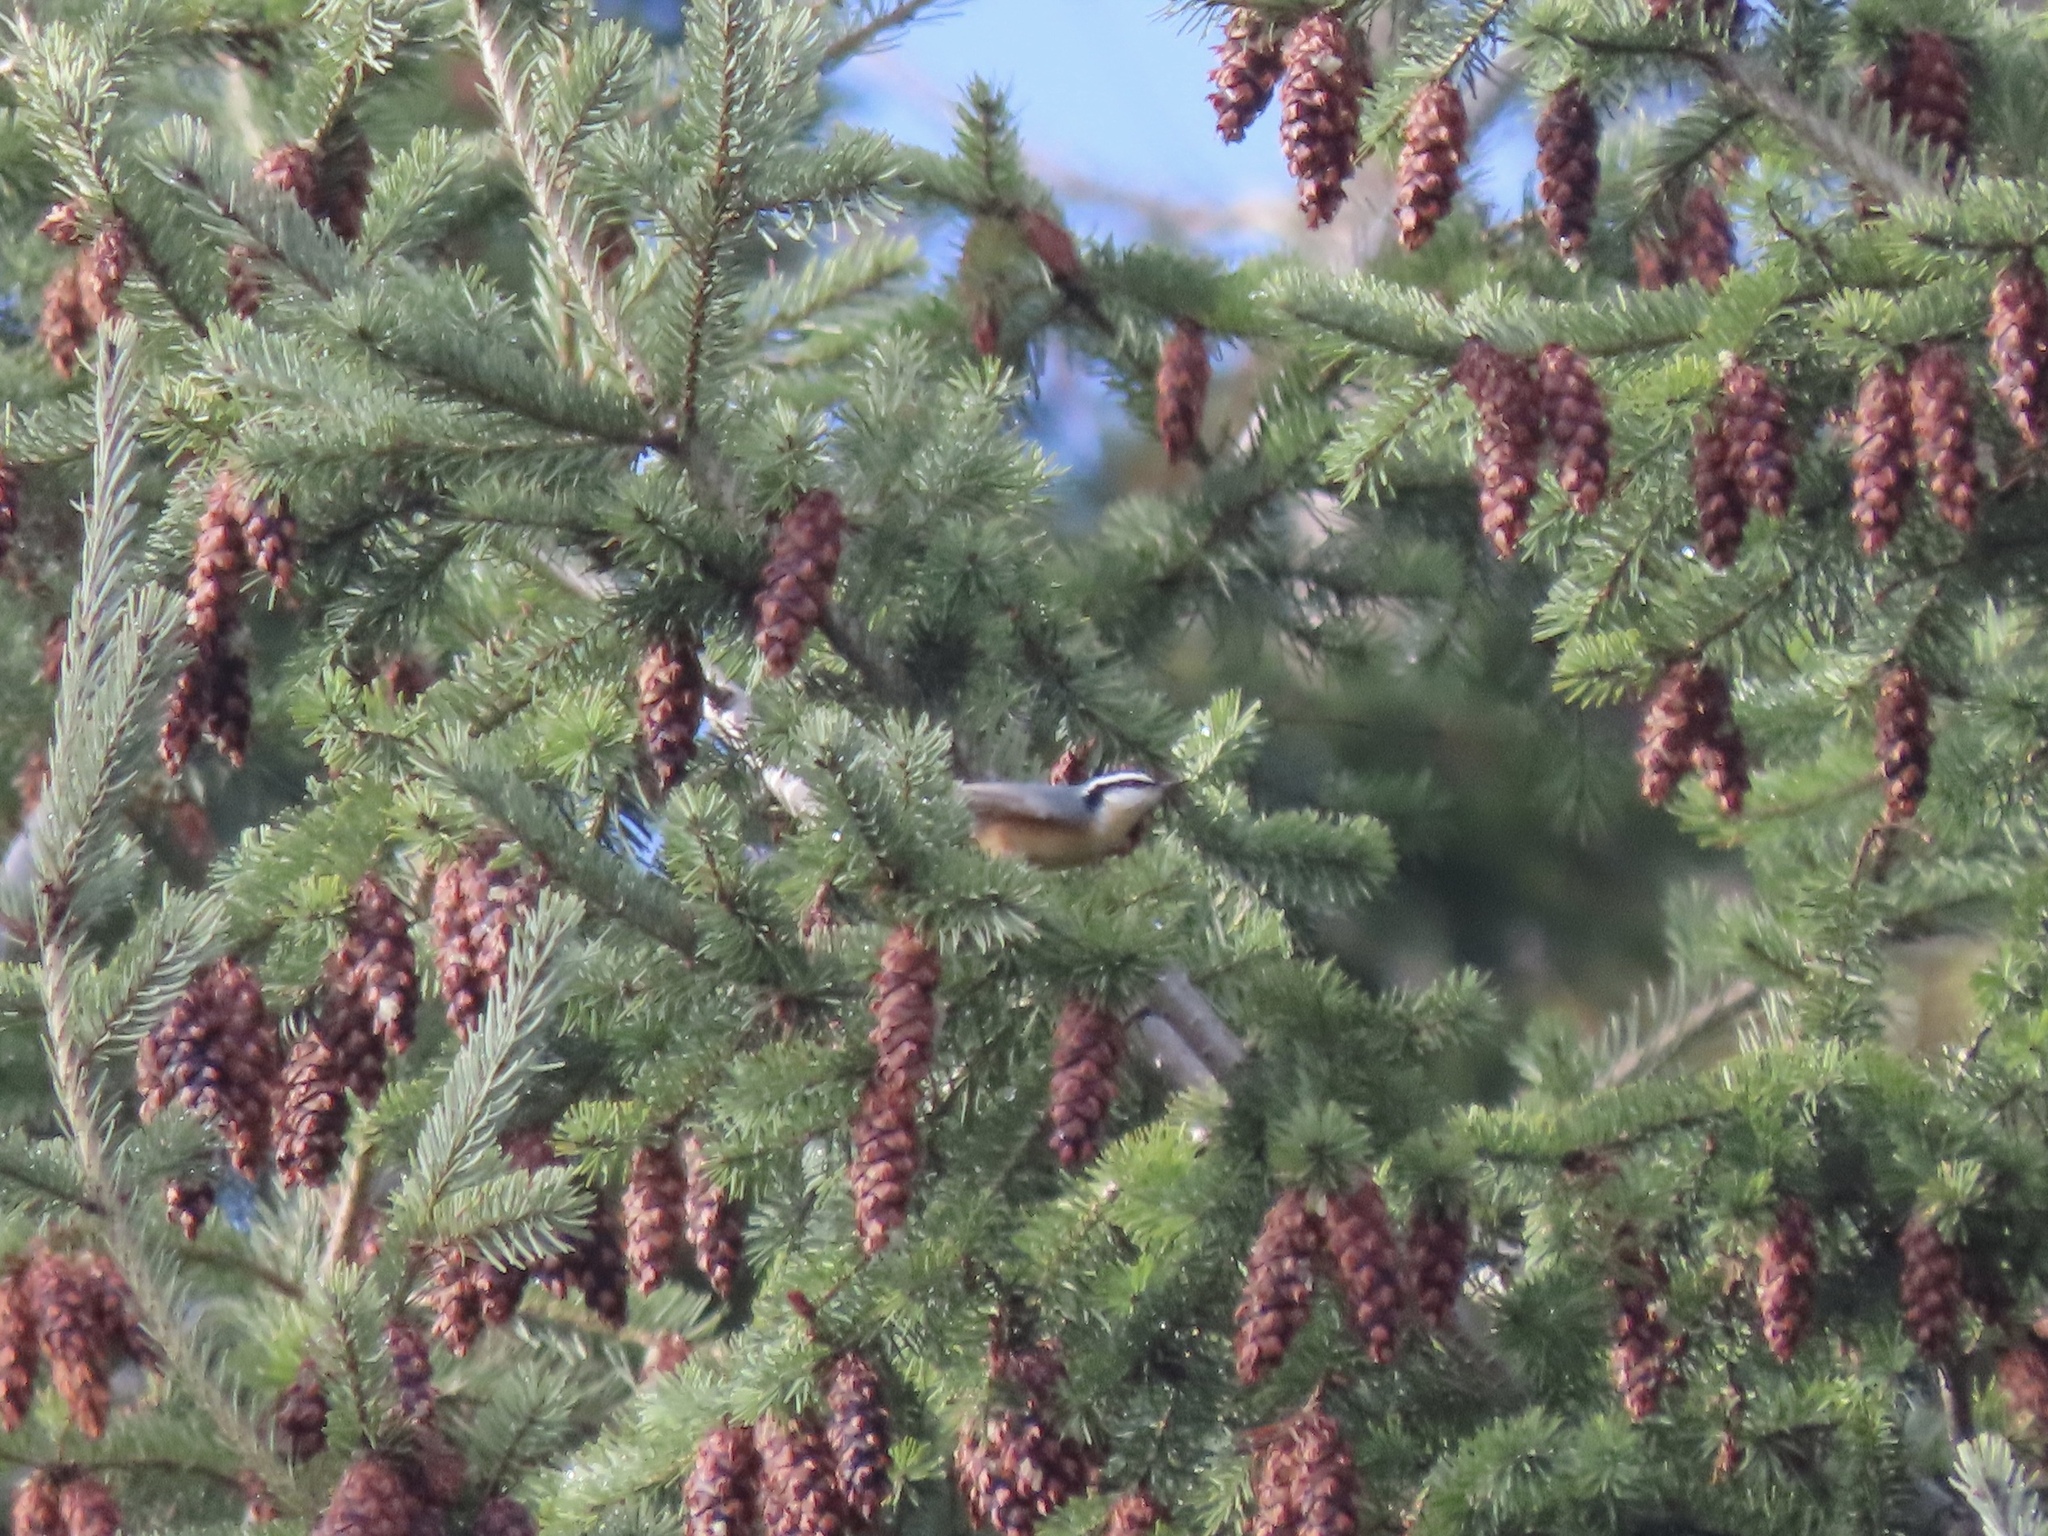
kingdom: Animalia
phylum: Chordata
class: Aves
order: Passeriformes
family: Sittidae
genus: Sitta
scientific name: Sitta canadensis
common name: Red-breasted nuthatch
